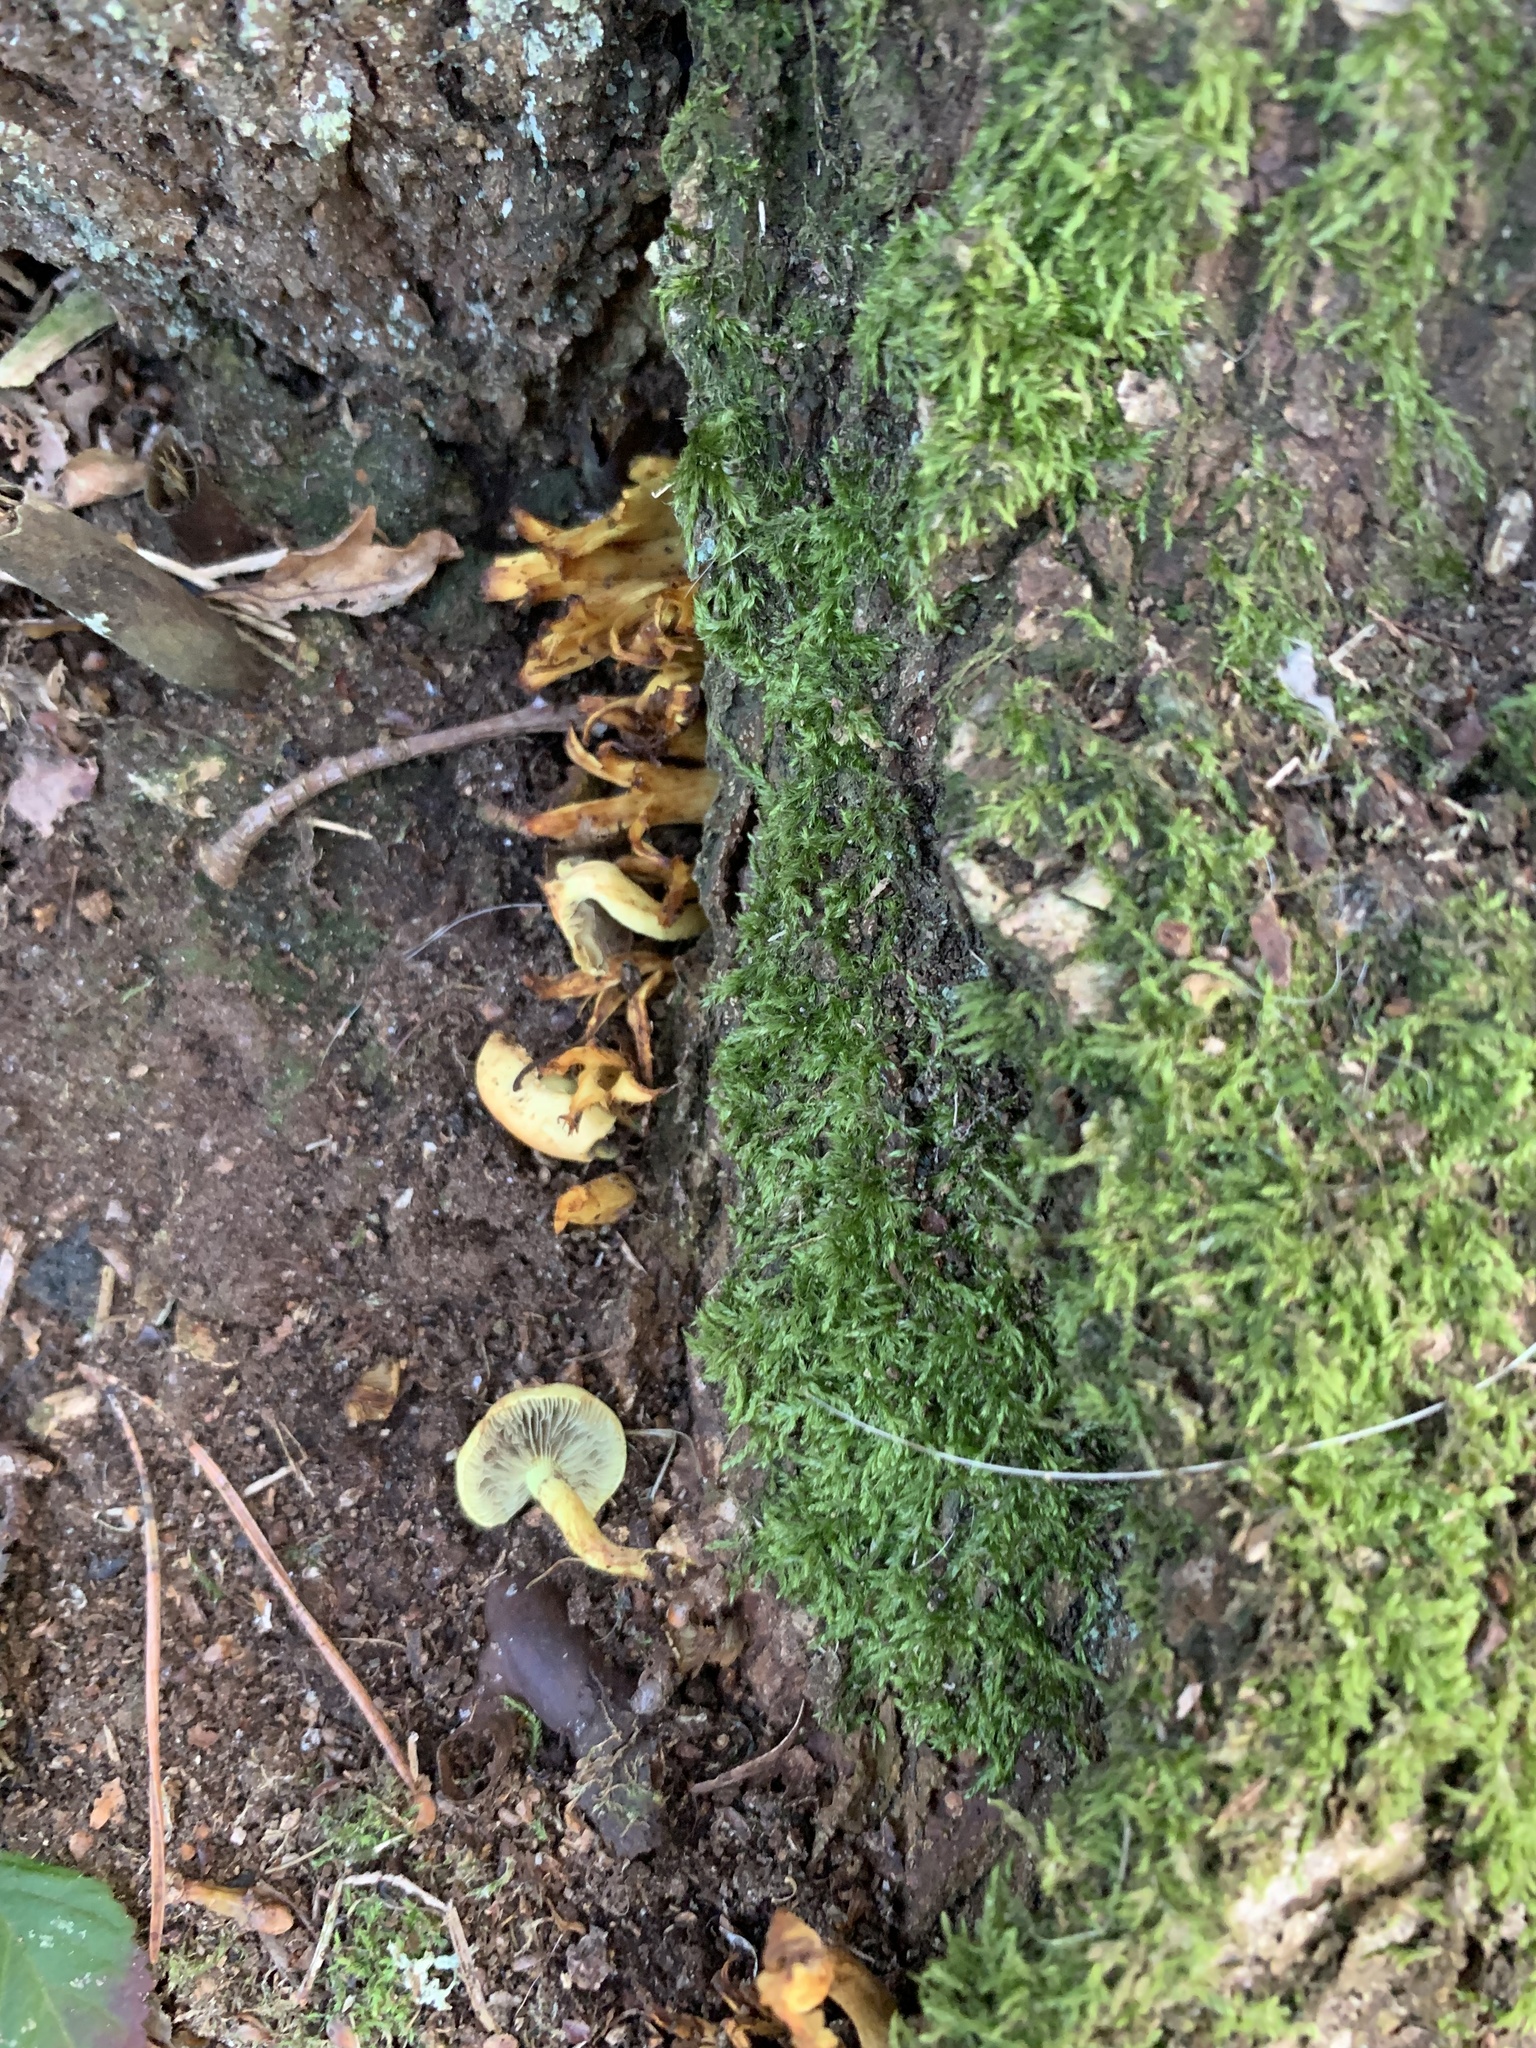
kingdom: Fungi
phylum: Basidiomycota
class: Agaricomycetes
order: Agaricales
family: Strophariaceae
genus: Hypholoma
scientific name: Hypholoma fasciculare
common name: Sulphur tuft
